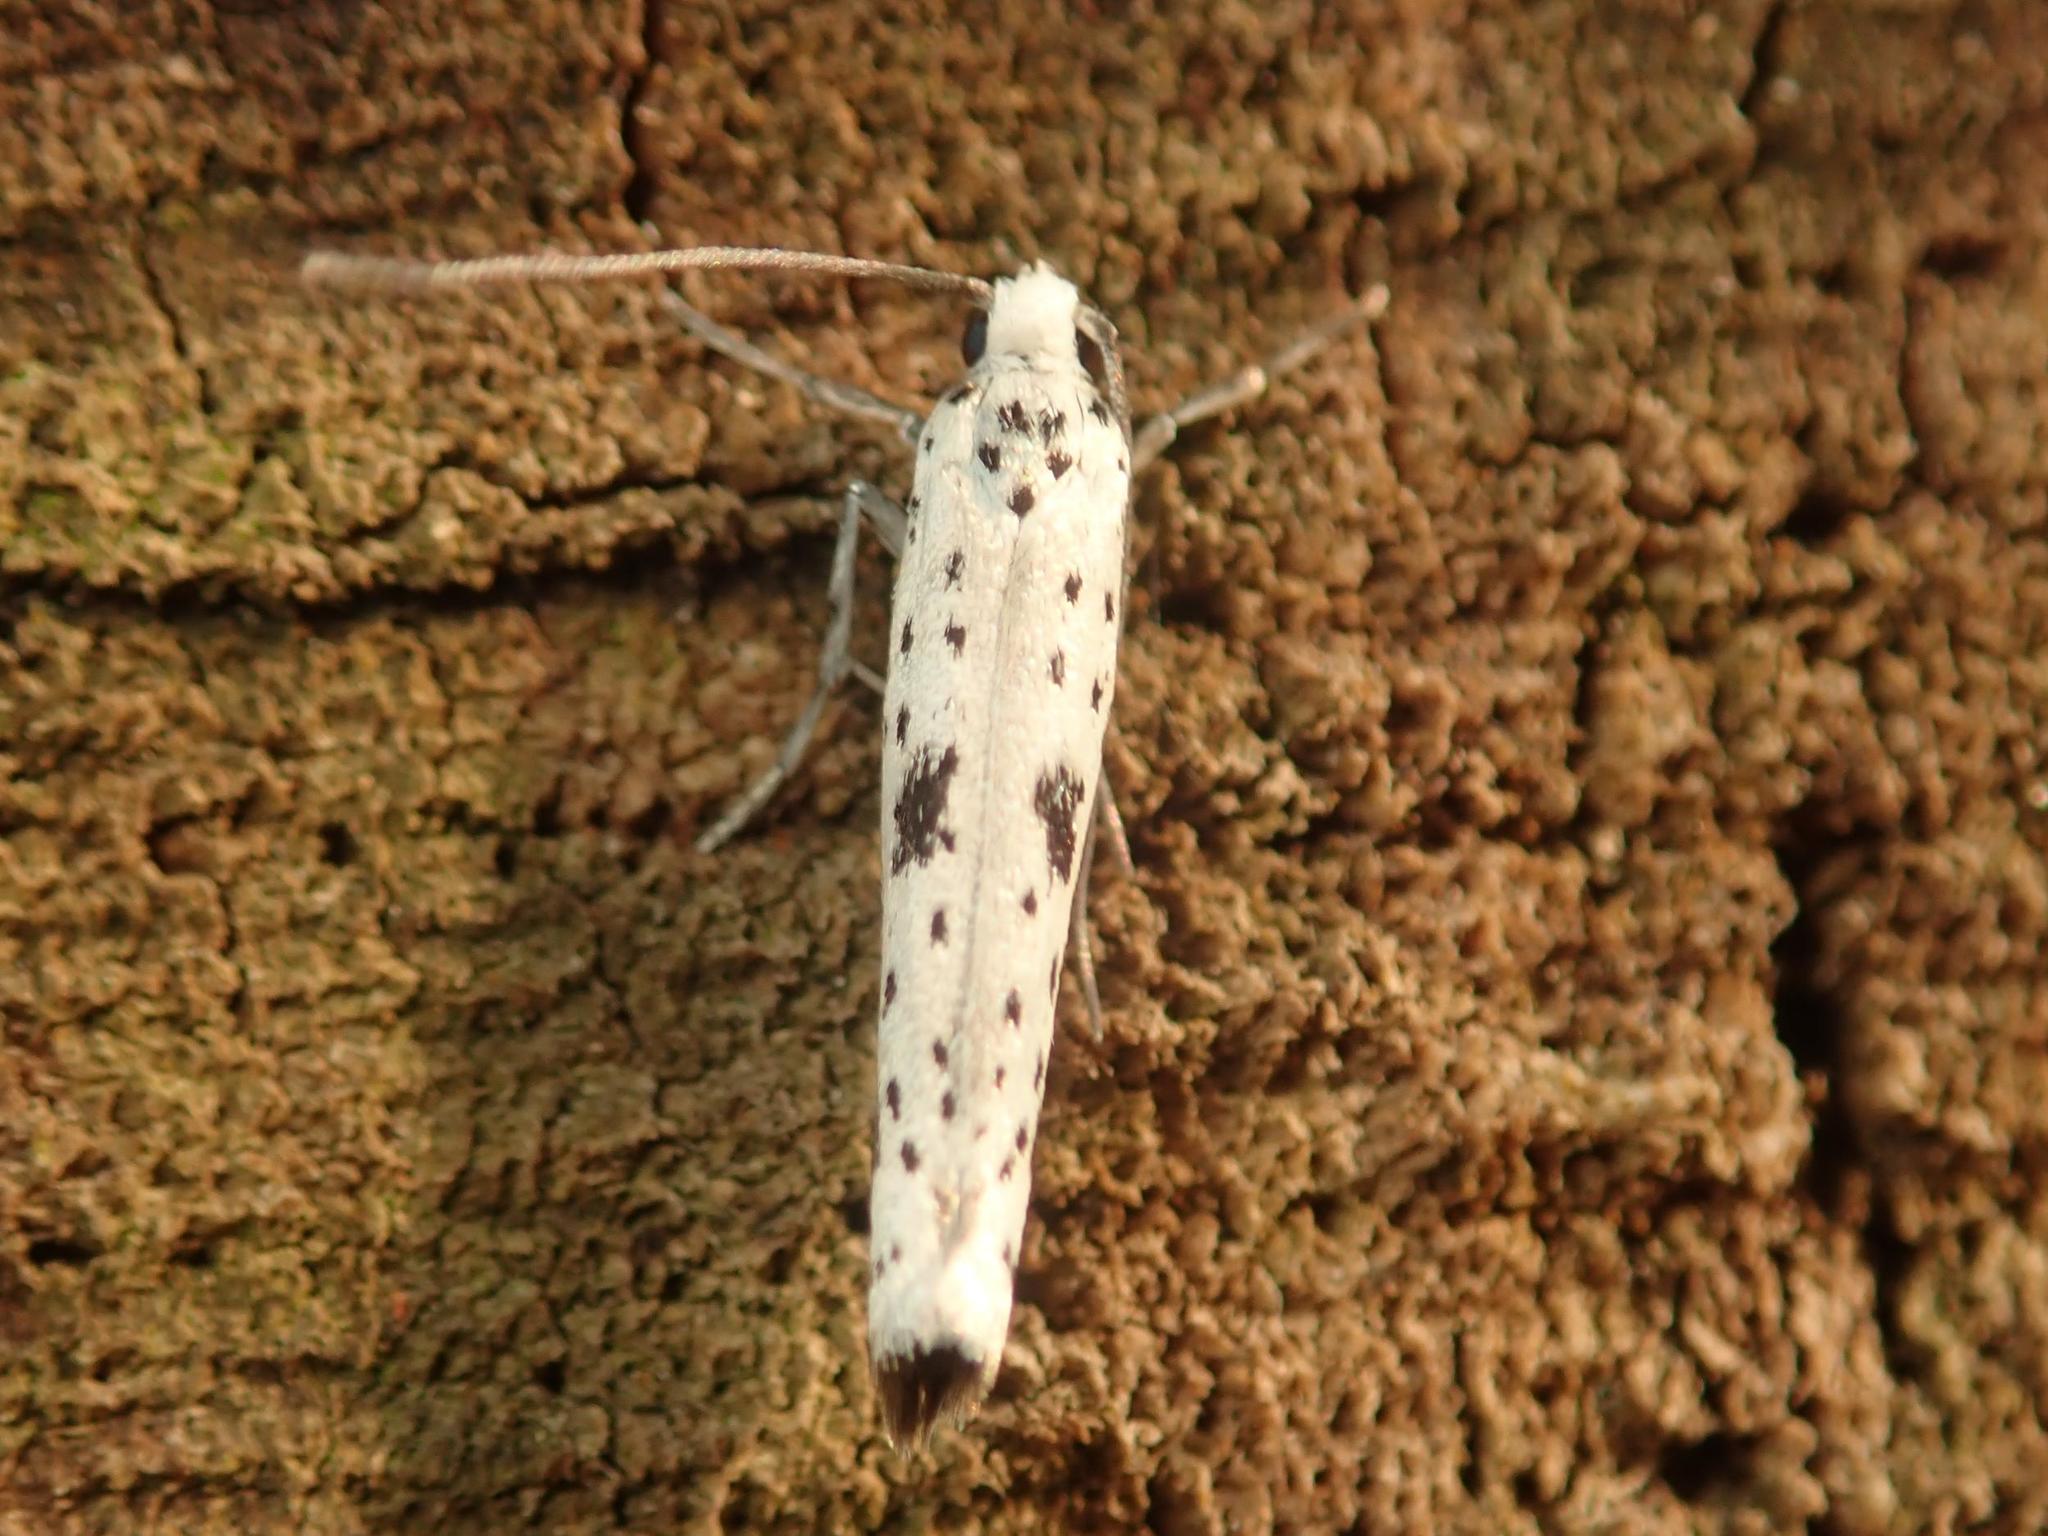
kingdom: Animalia
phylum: Arthropoda
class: Insecta
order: Lepidoptera
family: Yponomeutidae
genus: Yponomeuta
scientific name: Yponomeuta plumbella
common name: Black-tipped ermine
